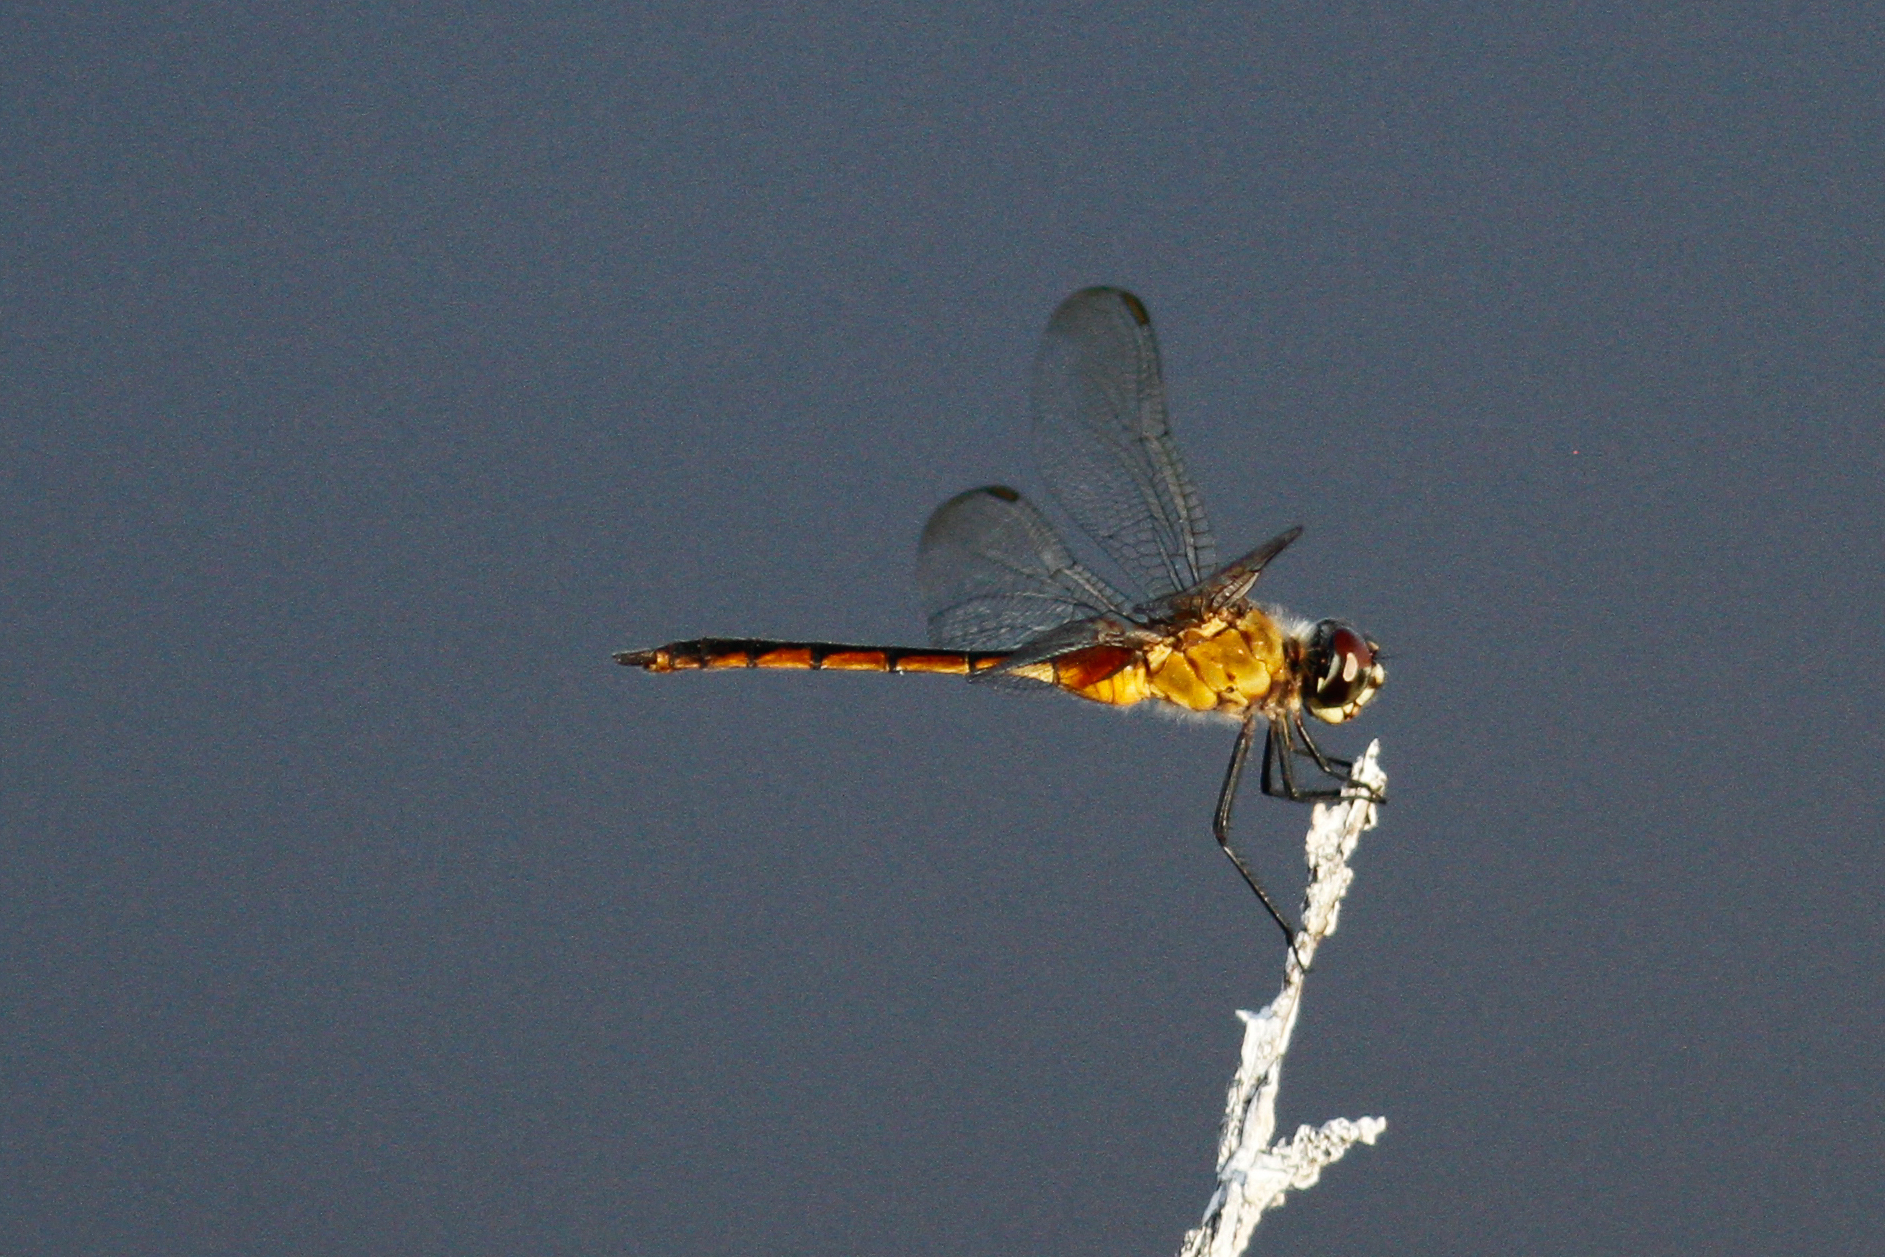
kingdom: Animalia
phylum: Arthropoda
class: Insecta
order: Odonata
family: Libellulidae
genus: Brachymesia
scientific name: Brachymesia herbida
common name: Tawny pennant
